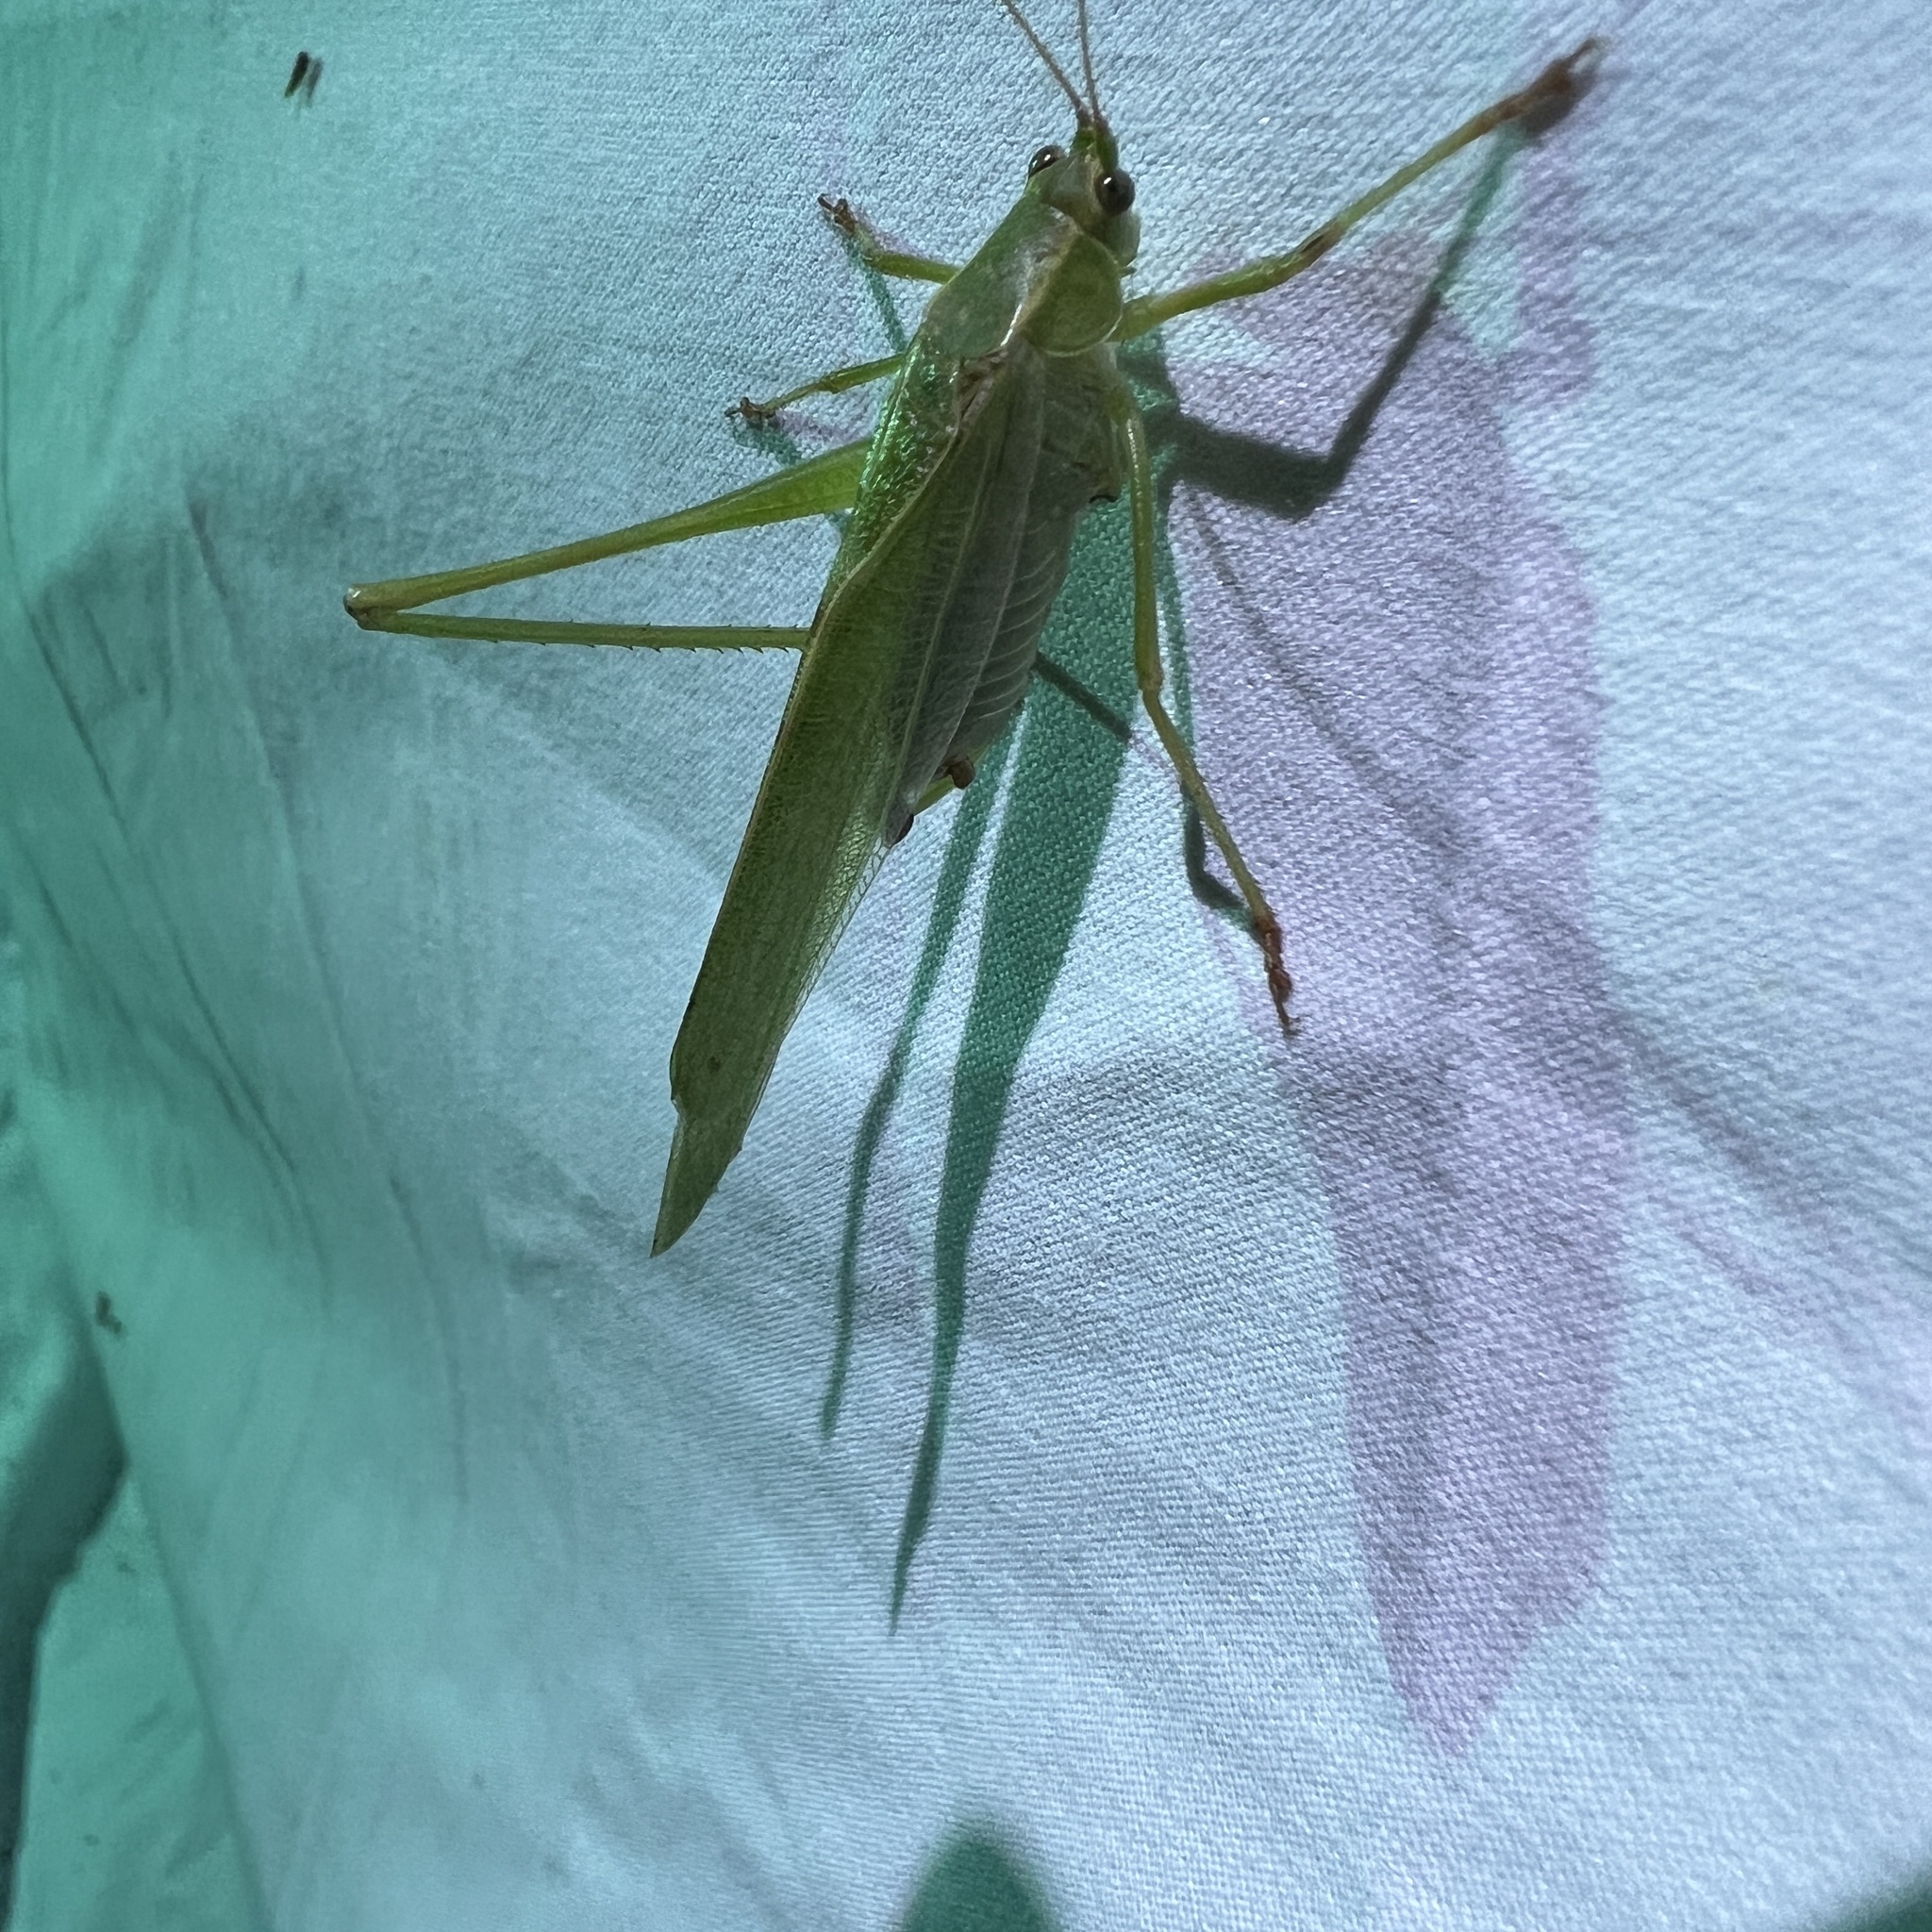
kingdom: Animalia
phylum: Arthropoda
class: Insecta
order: Orthoptera
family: Tettigoniidae
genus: Scudderia
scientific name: Scudderia furcata
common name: Fork-tailed bush katydid
